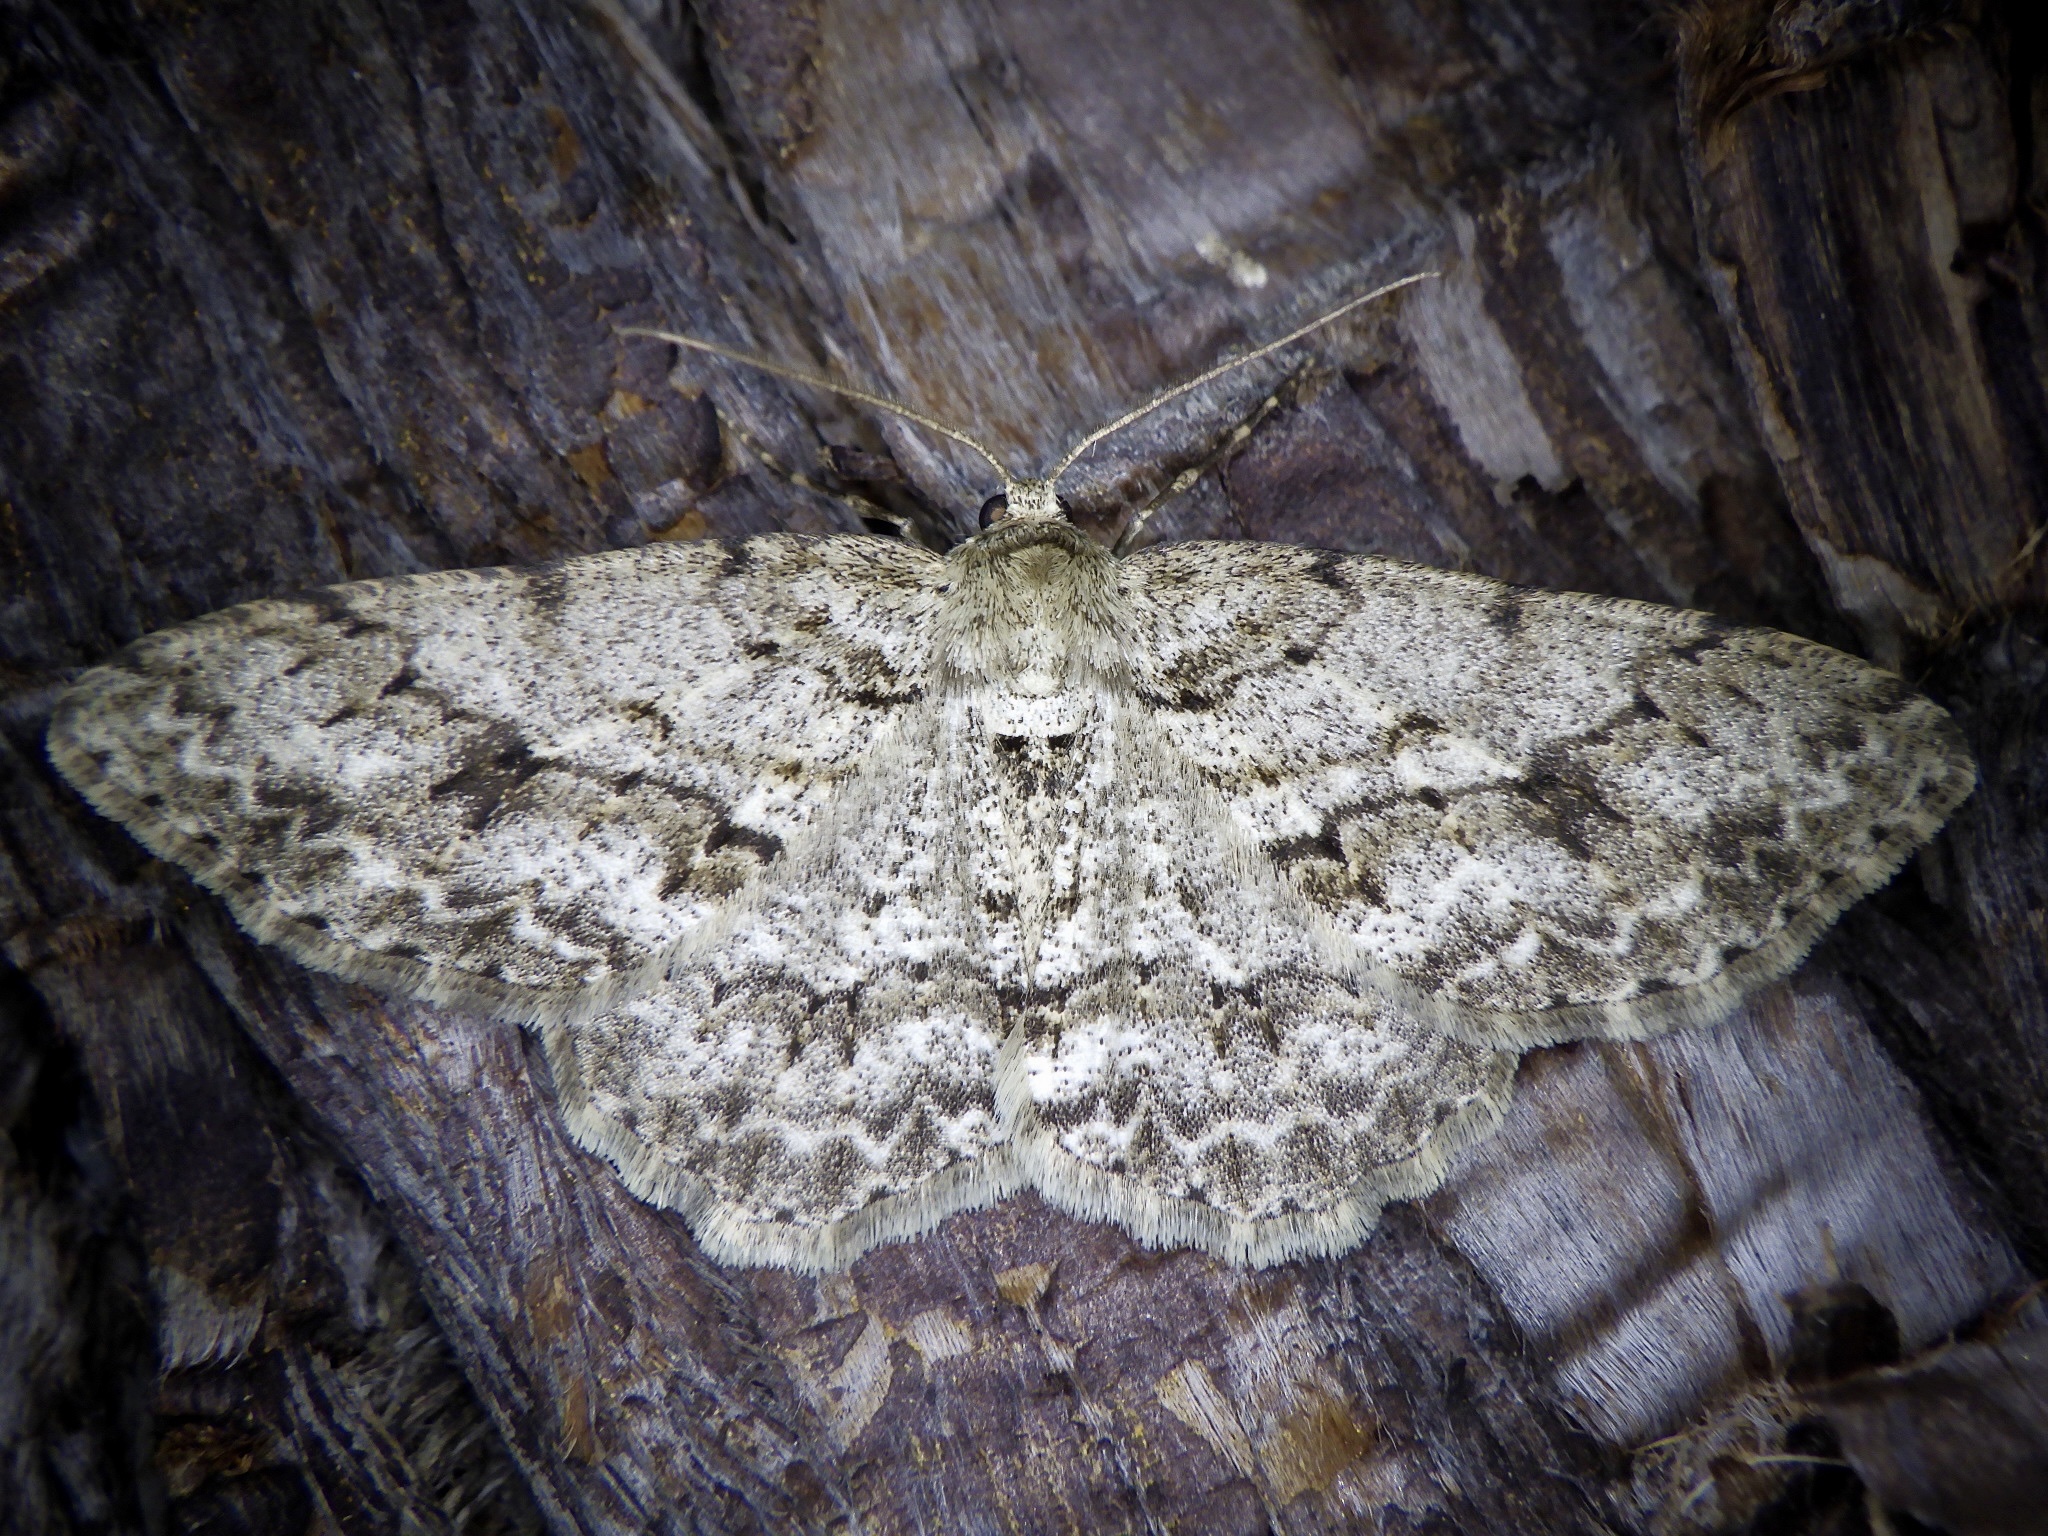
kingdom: Animalia
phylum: Arthropoda
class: Insecta
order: Lepidoptera
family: Geometridae
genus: Ectropis
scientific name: Ectropis excellens
